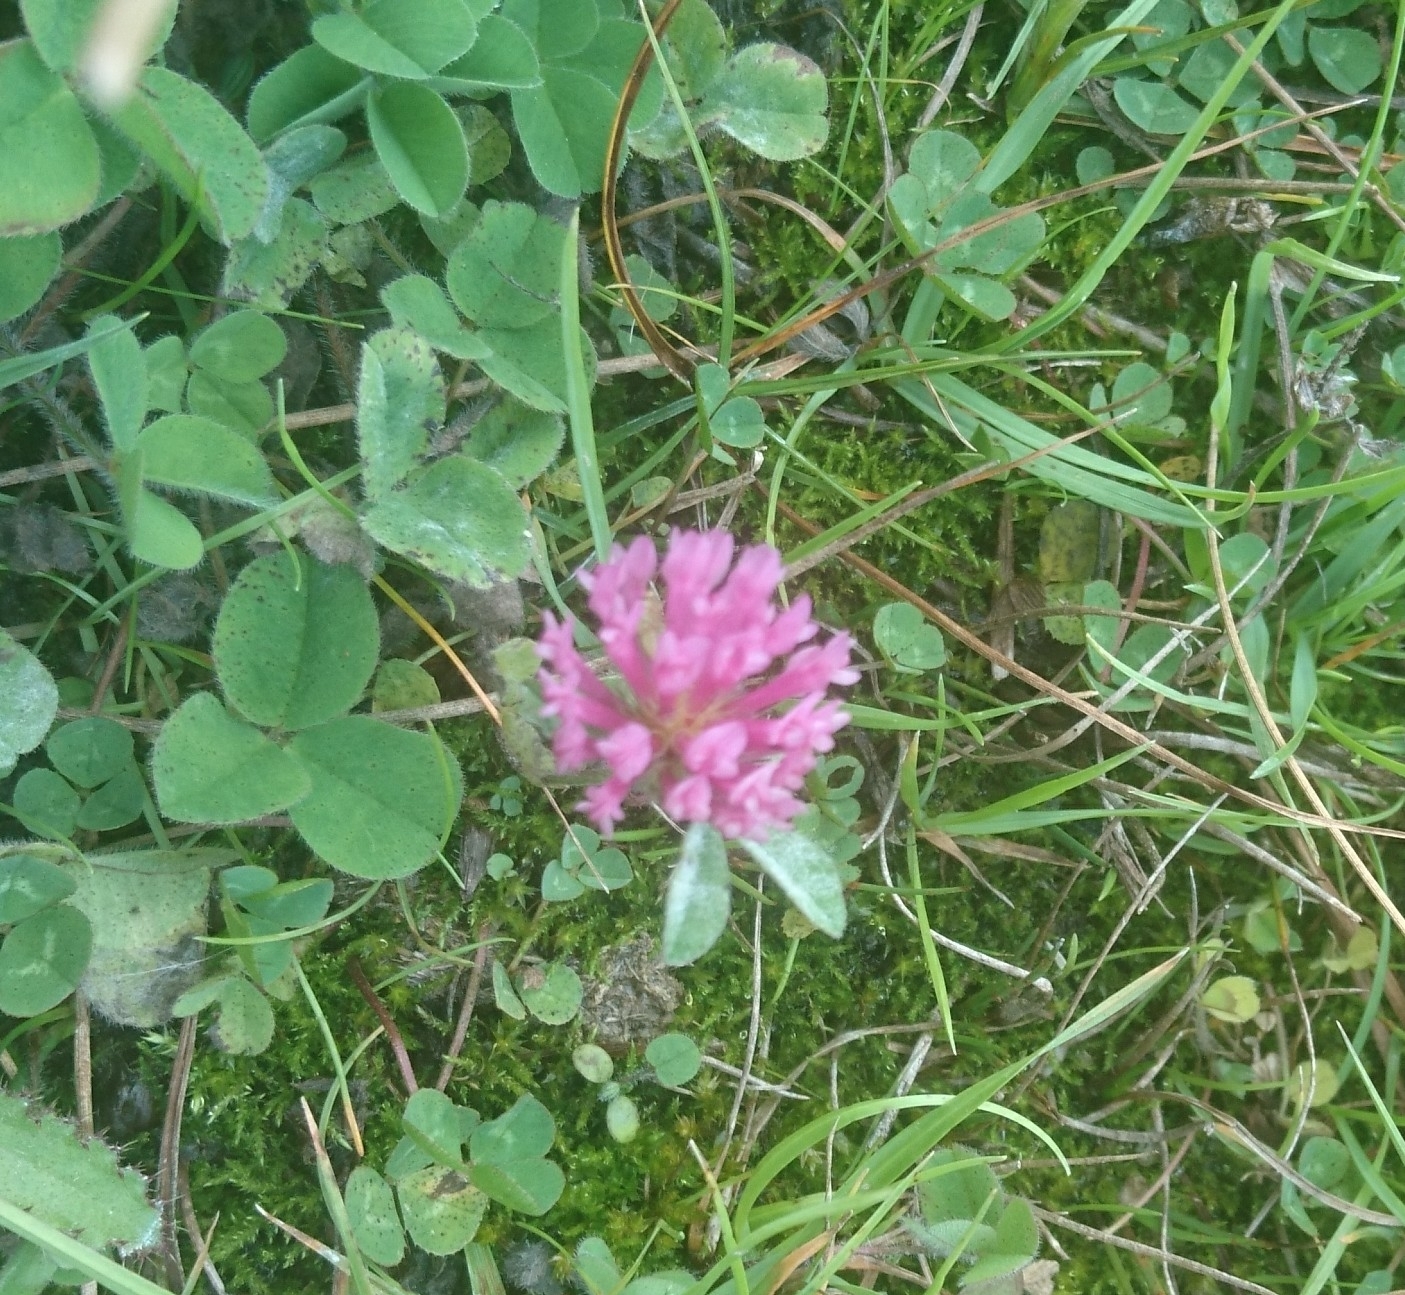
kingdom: Plantae
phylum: Tracheophyta
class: Magnoliopsida
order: Fabales
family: Fabaceae
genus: Trifolium
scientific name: Trifolium pratense
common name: Red clover
